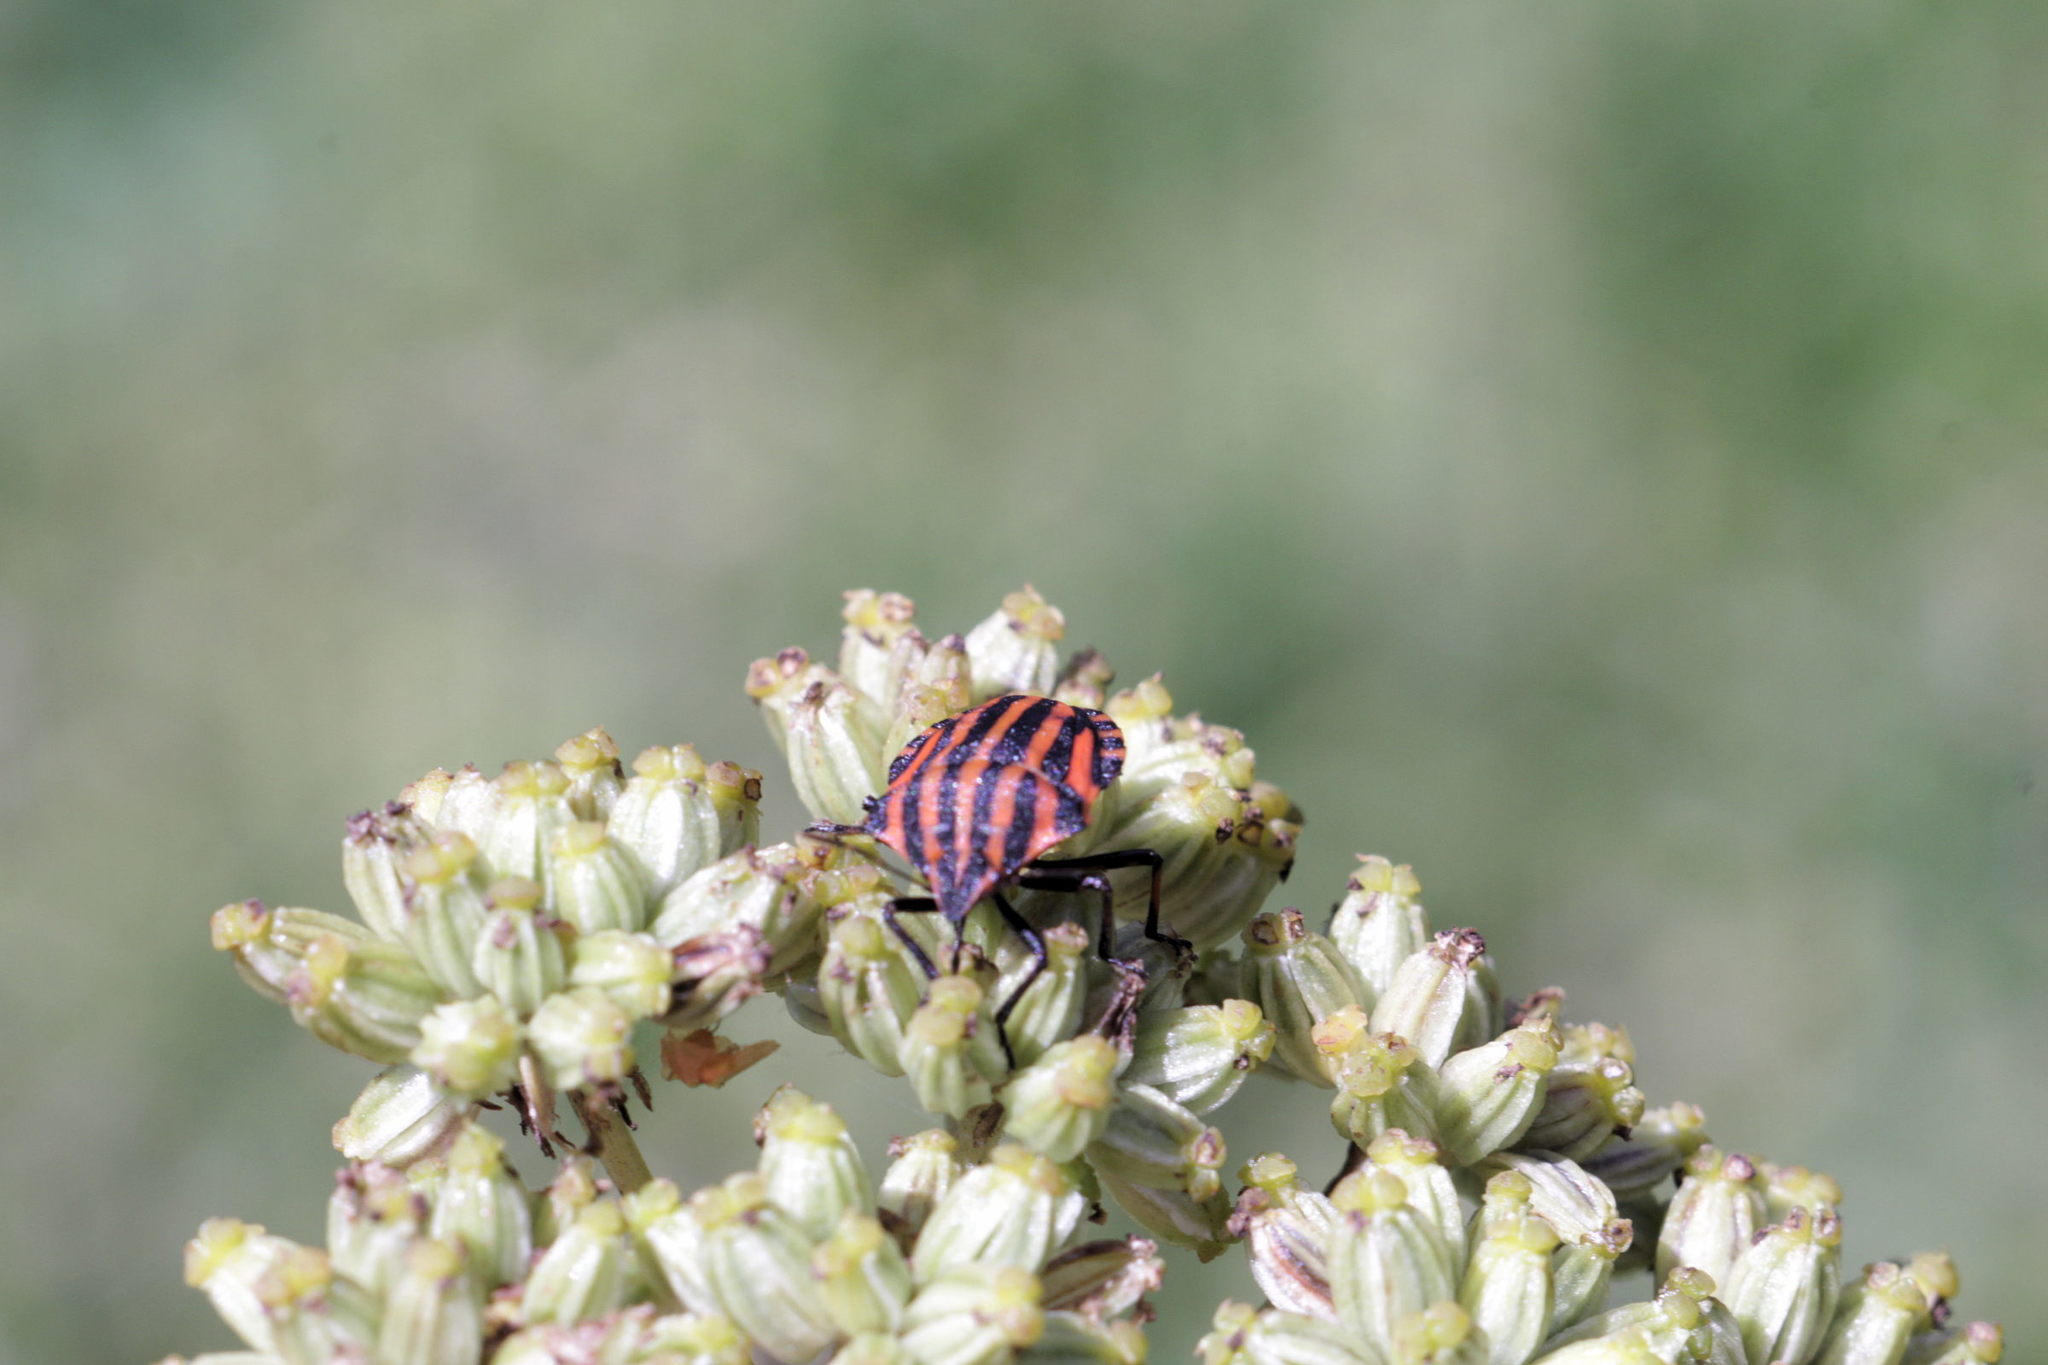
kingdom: Animalia
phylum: Arthropoda
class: Insecta
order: Hemiptera
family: Pentatomidae
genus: Graphosoma
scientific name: Graphosoma italicum
